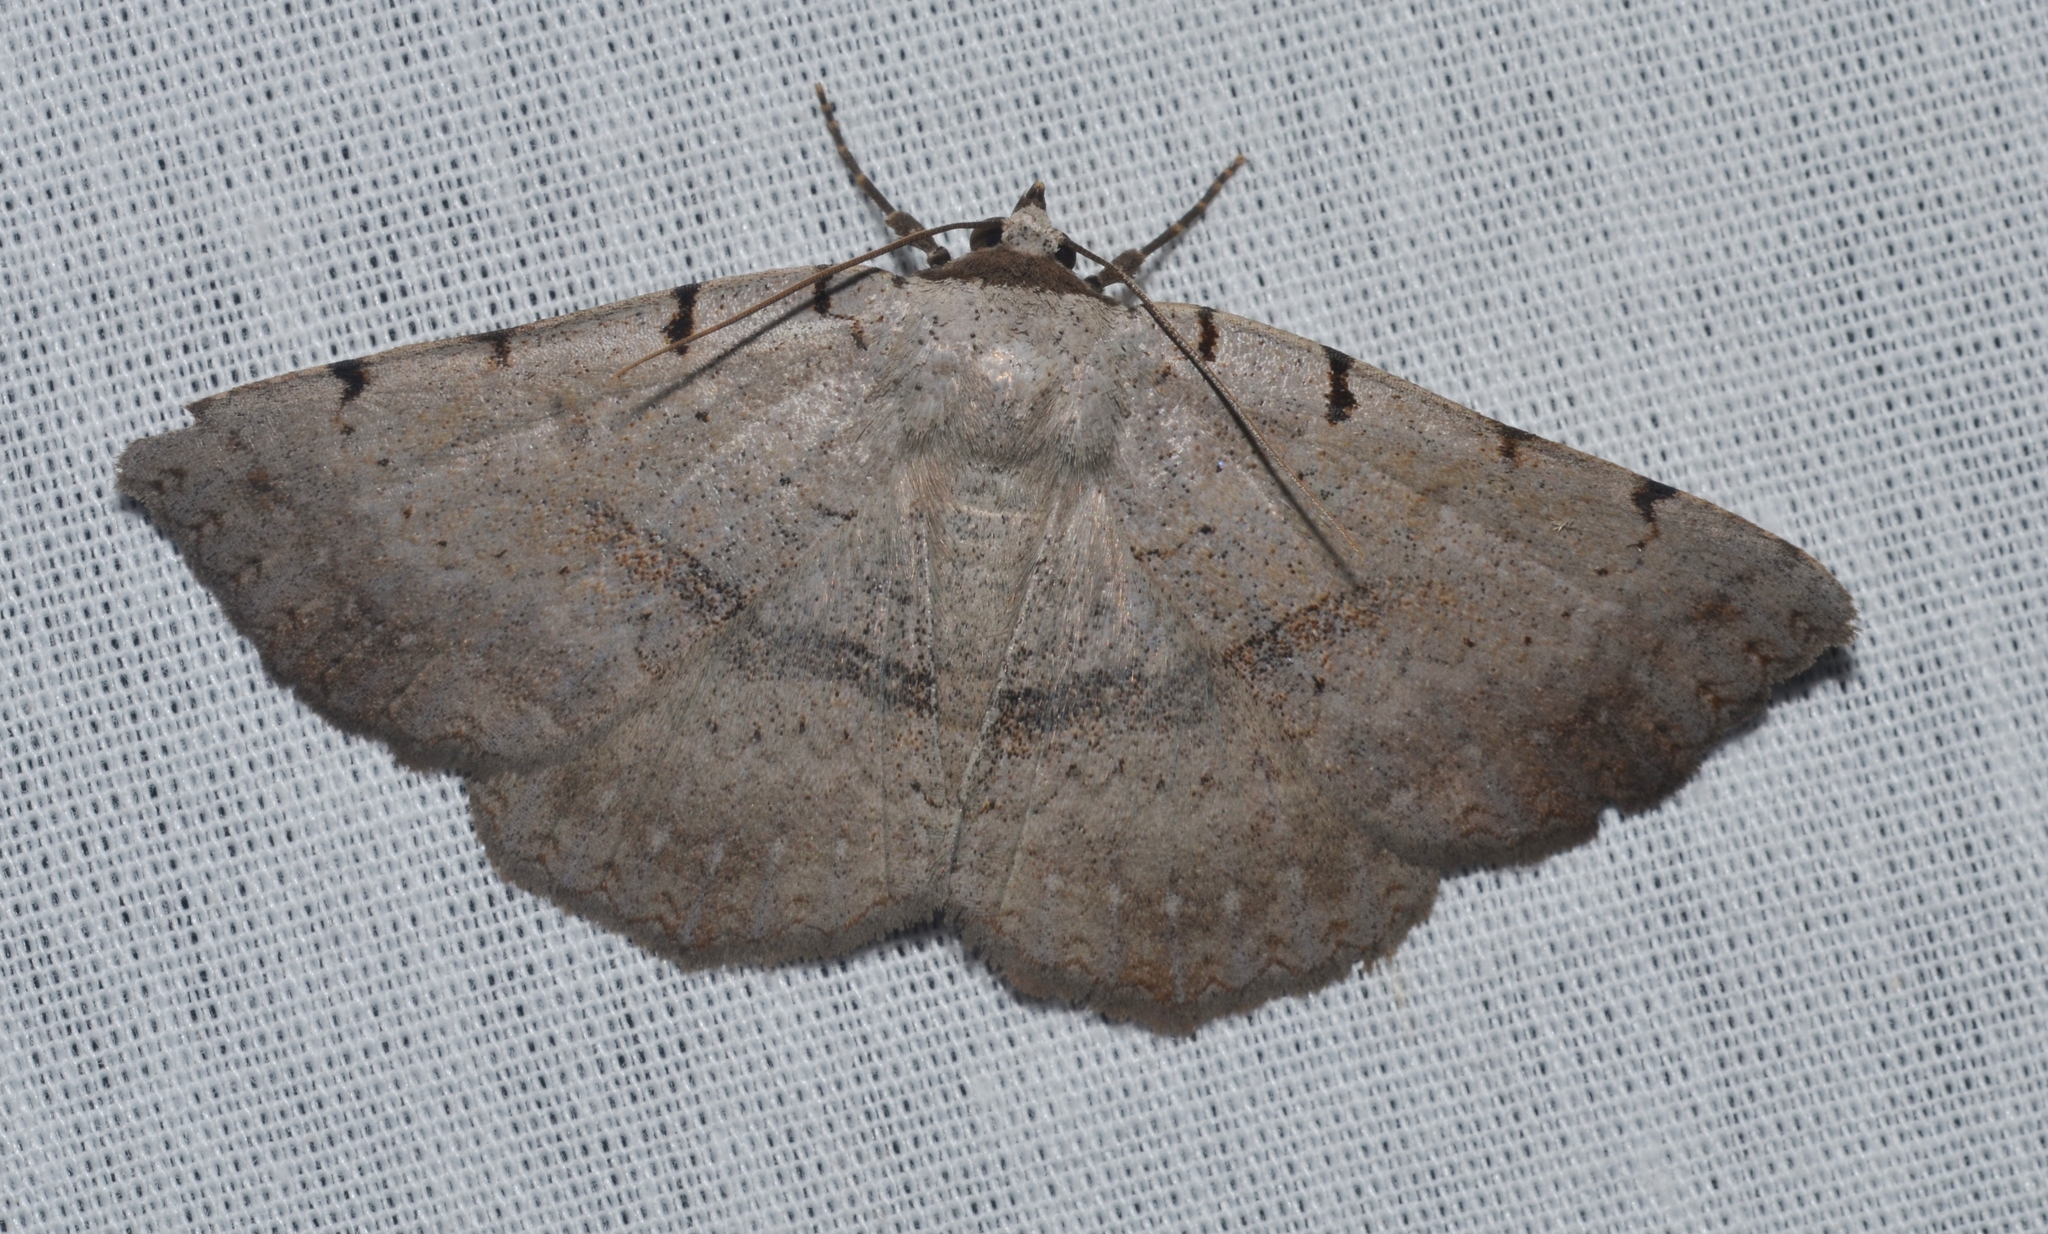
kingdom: Animalia
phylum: Arthropoda
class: Insecta
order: Lepidoptera
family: Erebidae
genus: Spiloloma
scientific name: Spiloloma lunilinea
